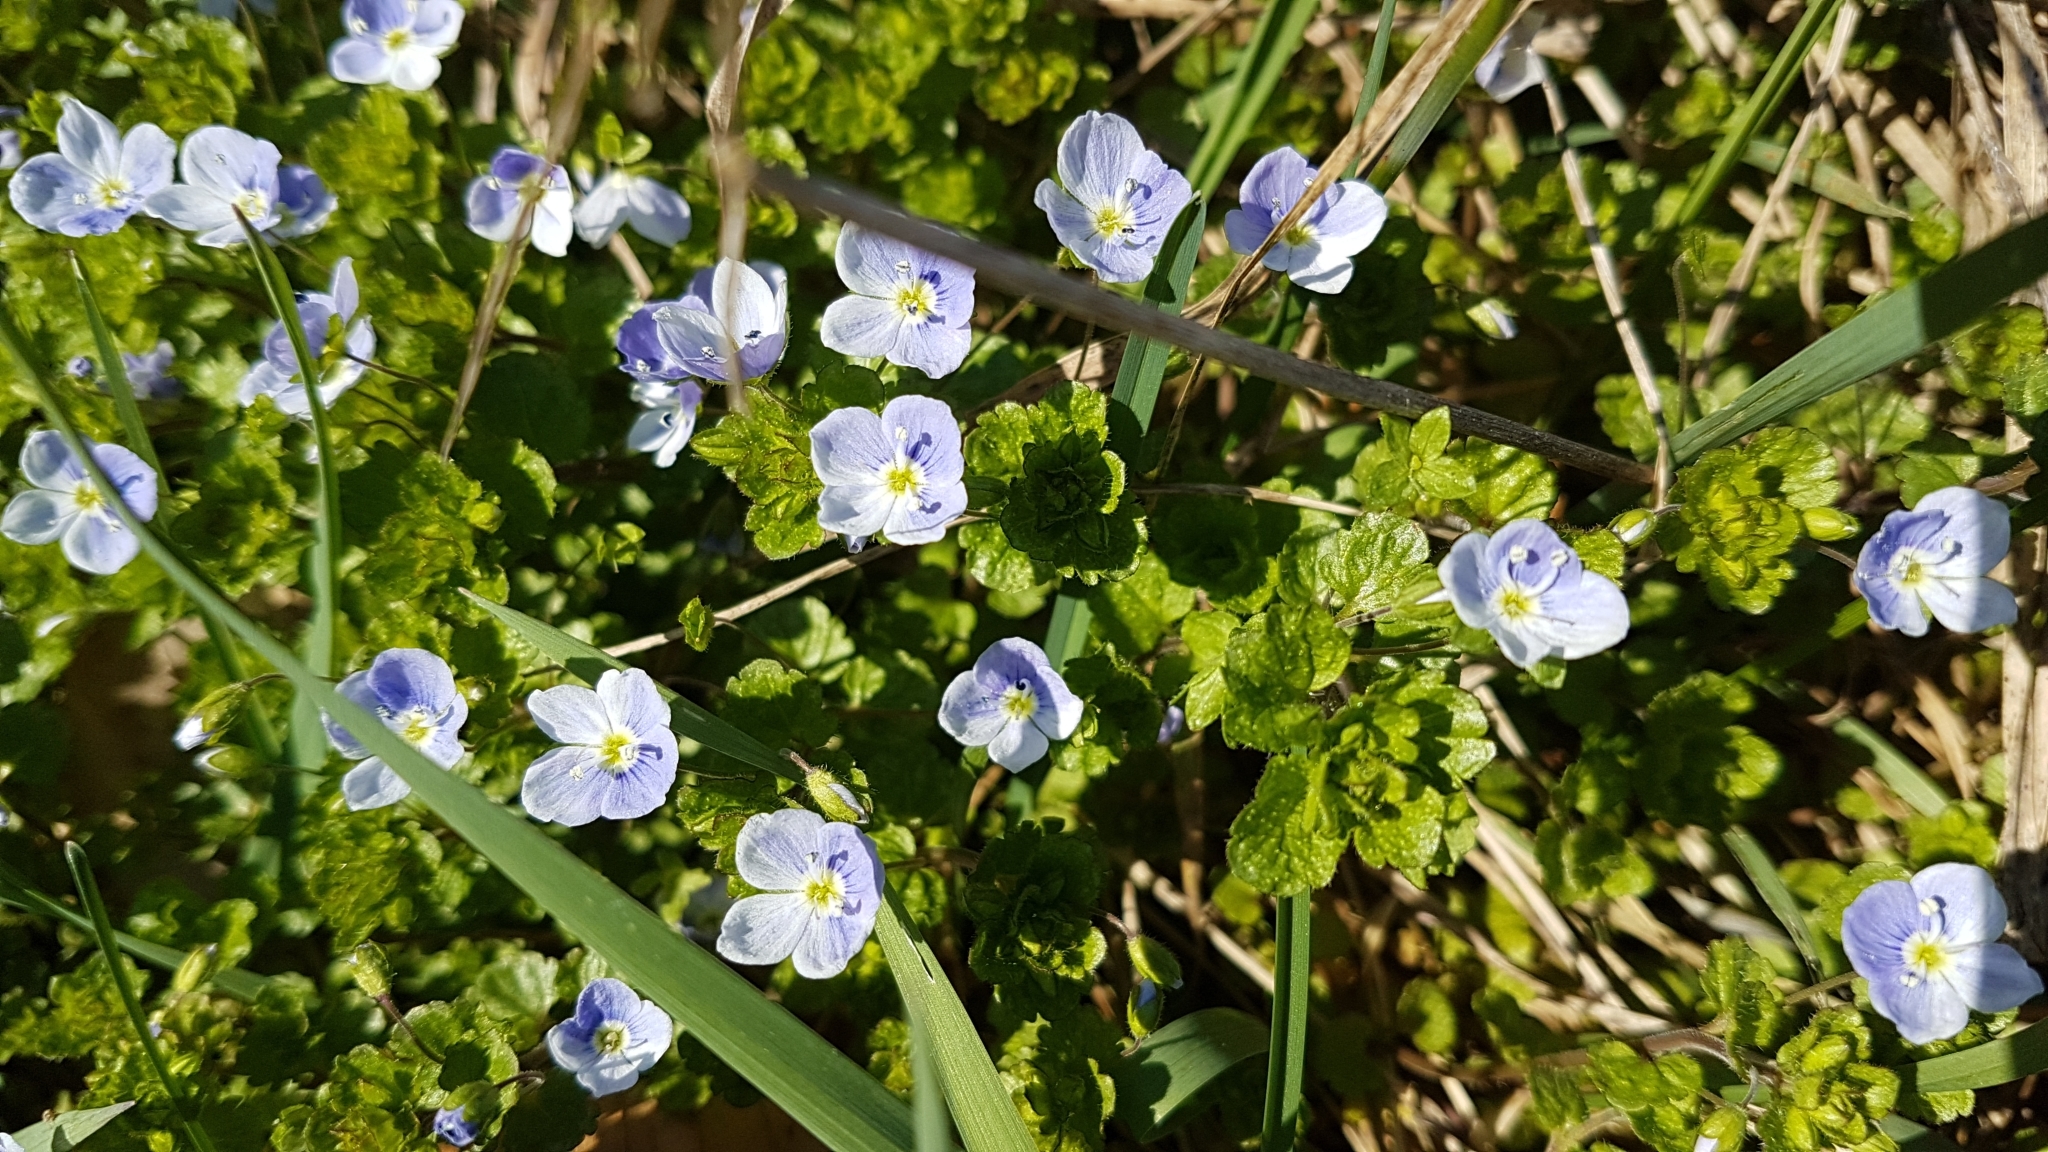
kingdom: Plantae
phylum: Tracheophyta
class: Magnoliopsida
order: Lamiales
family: Plantaginaceae
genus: Veronica
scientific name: Veronica filiformis
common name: Slender speedwell
